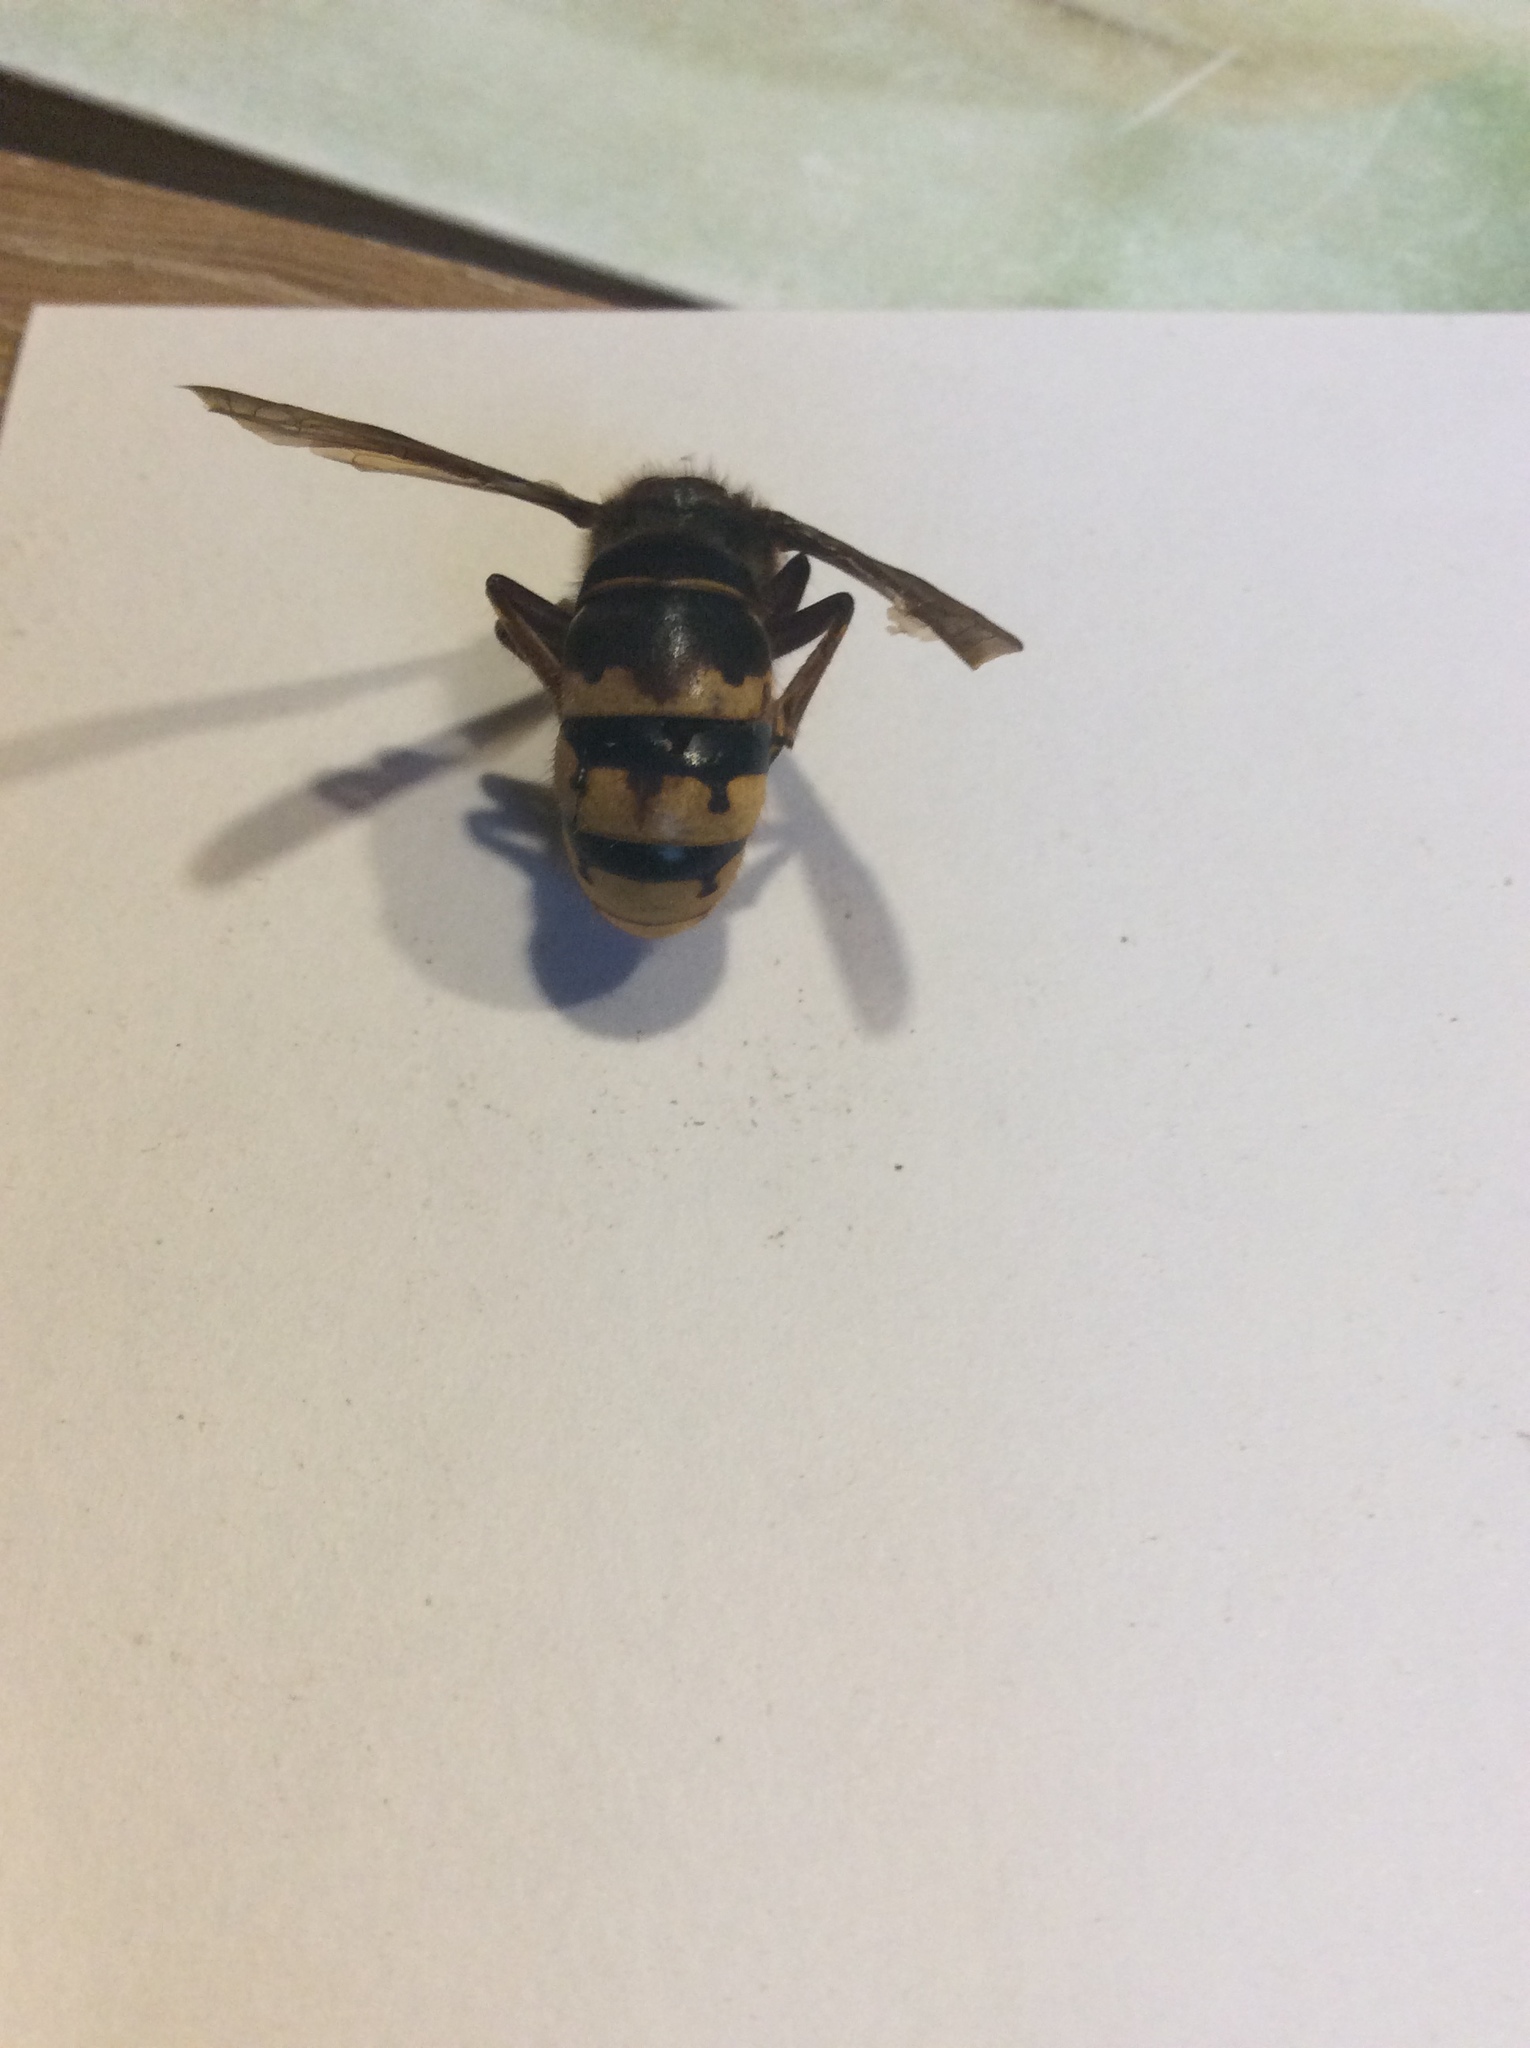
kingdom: Animalia
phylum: Arthropoda
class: Insecta
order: Hymenoptera
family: Vespidae
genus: Vespa
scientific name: Vespa crabro
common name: Hornet
